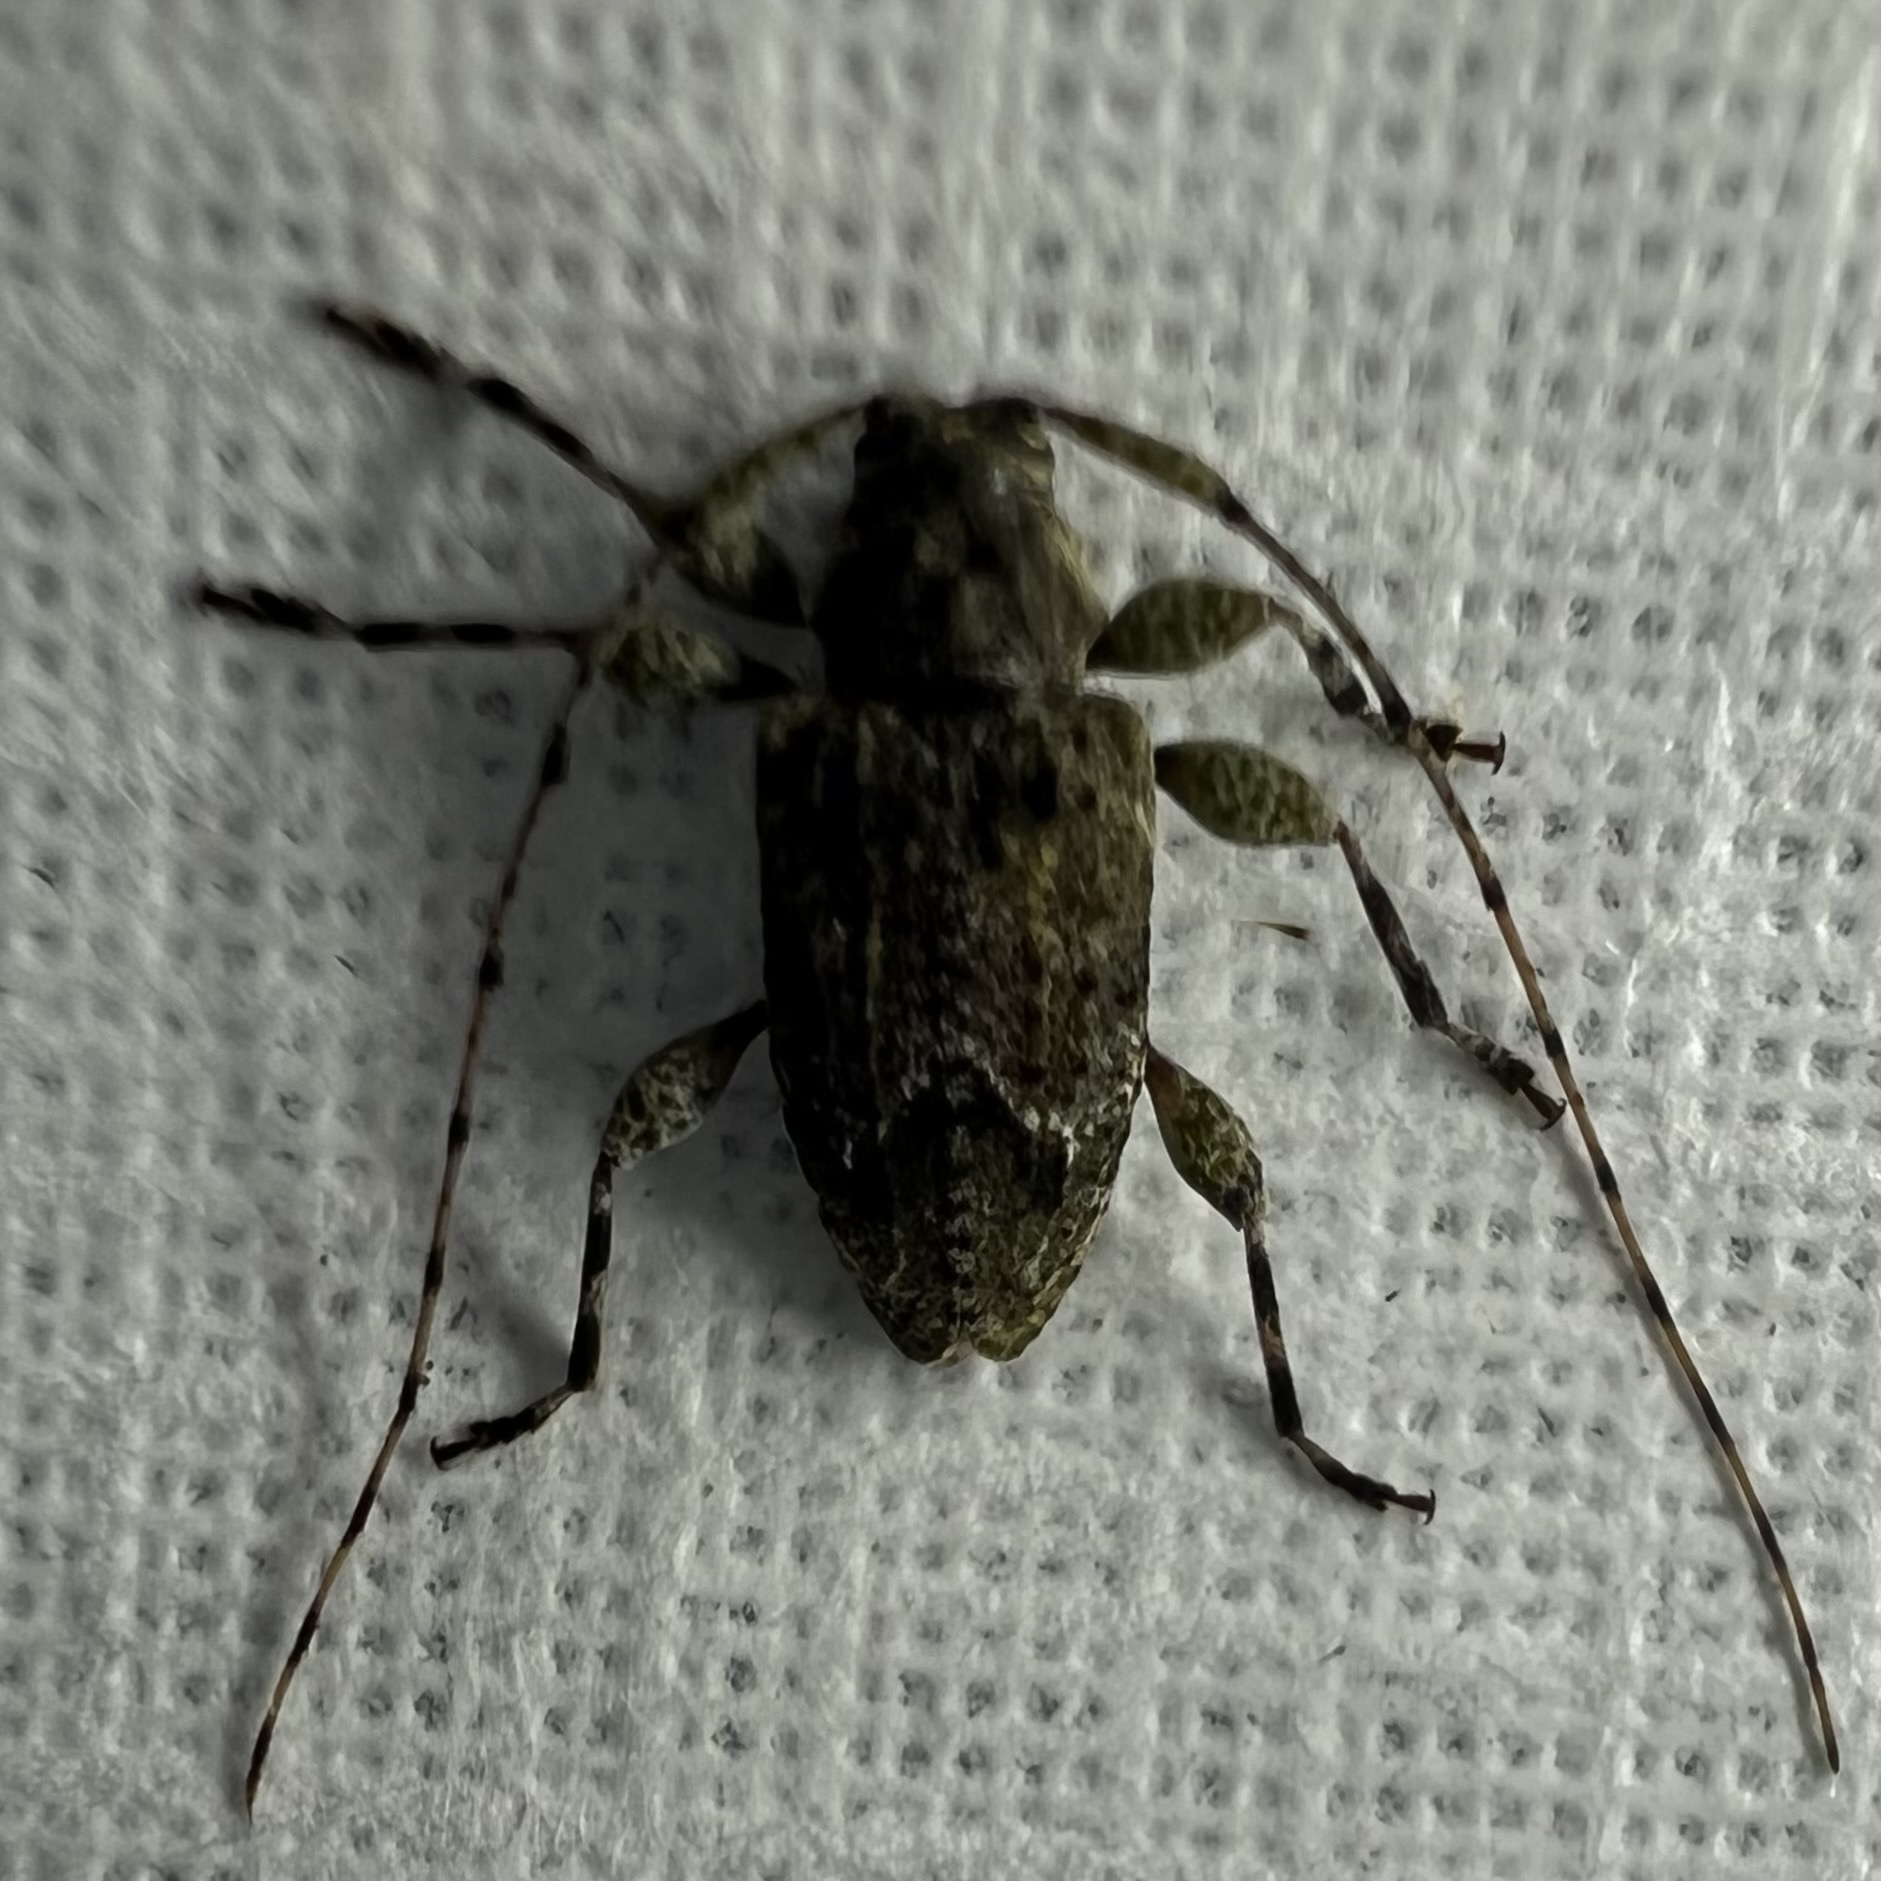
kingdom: Animalia
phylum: Arthropoda
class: Insecta
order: Coleoptera
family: Cerambycidae
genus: Astylidius
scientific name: Astylidius parvus
